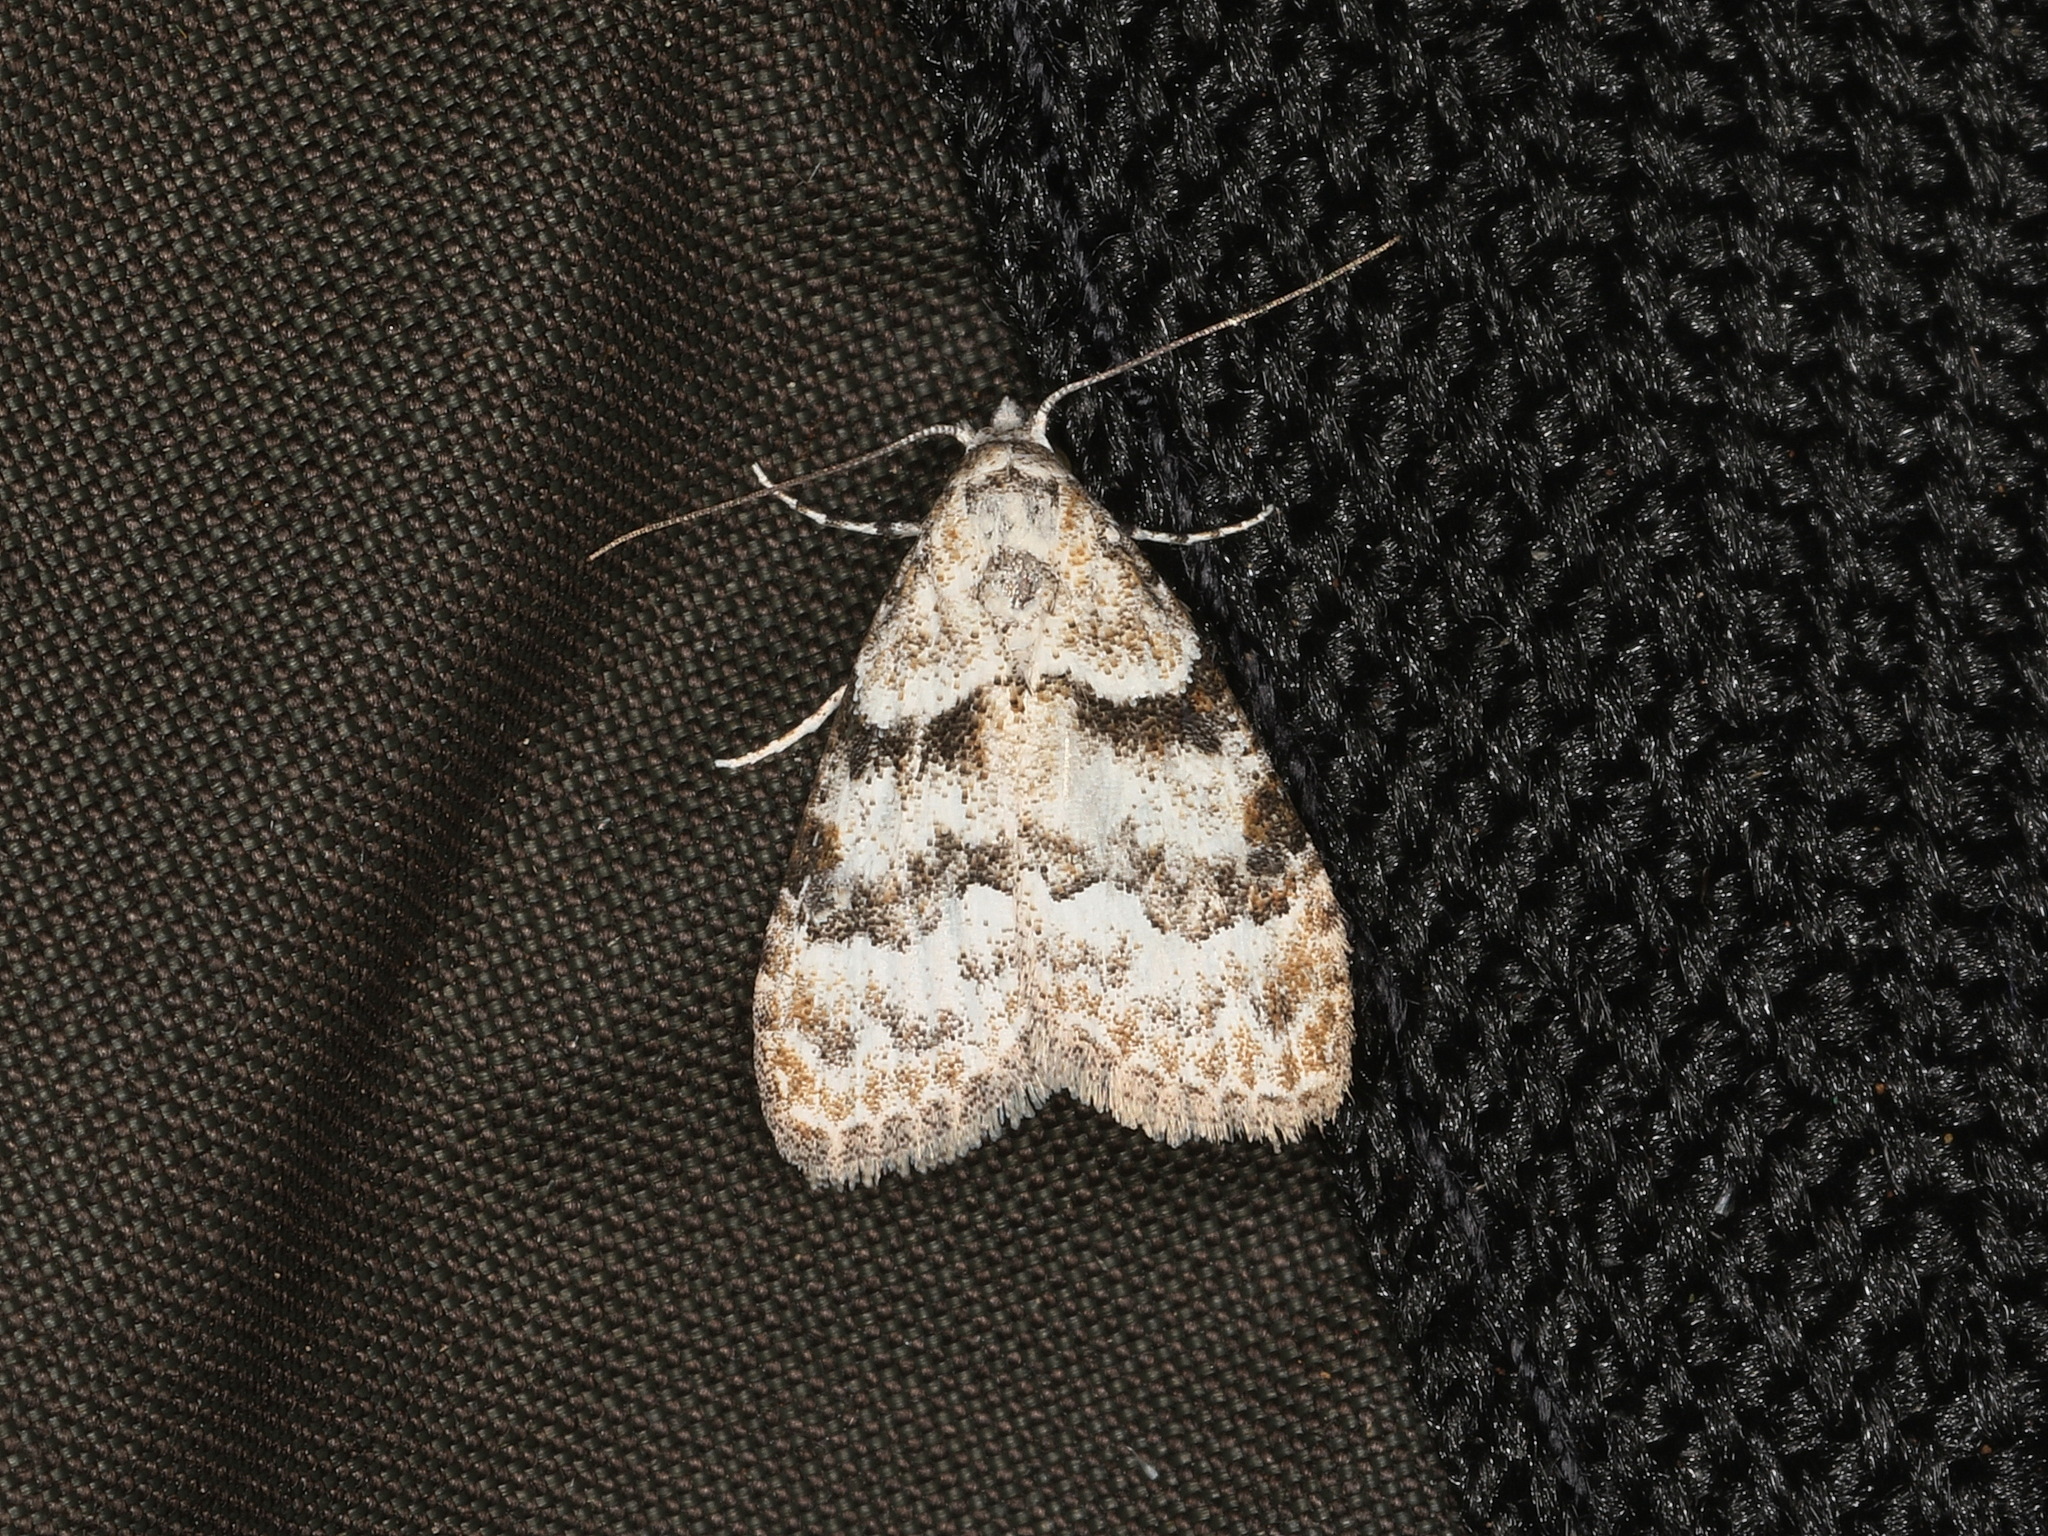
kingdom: Animalia
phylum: Arthropoda
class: Insecta
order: Lepidoptera
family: Nolidae
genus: Nola
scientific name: Nola pycnopasta
